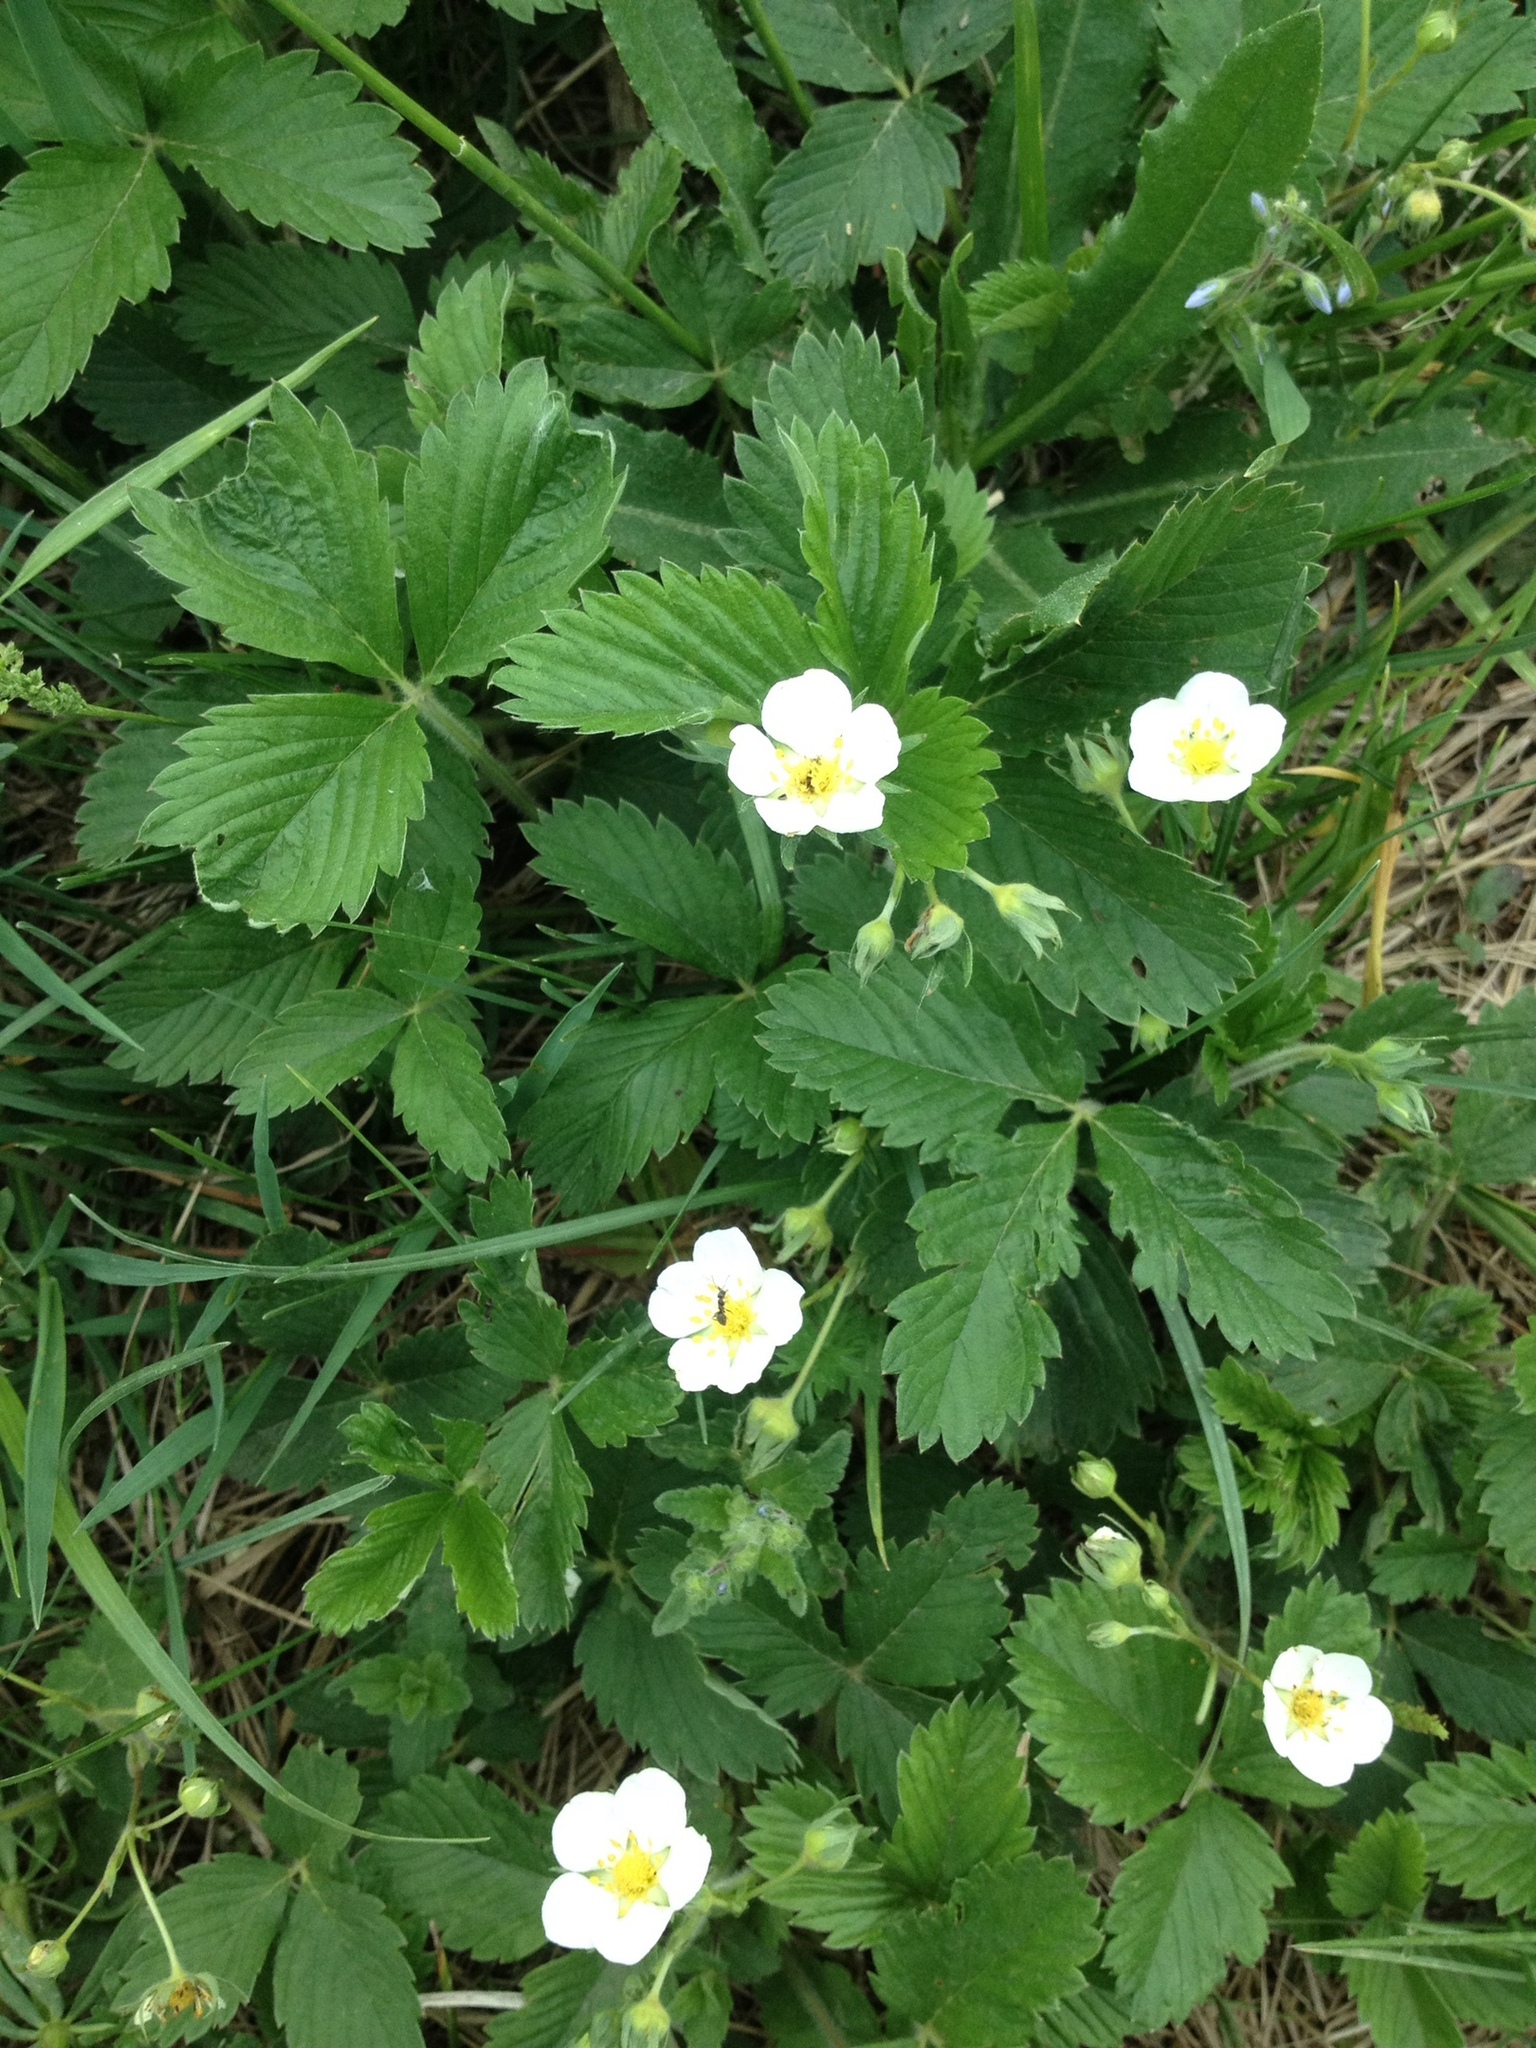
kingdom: Plantae
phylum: Tracheophyta
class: Magnoliopsida
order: Rosales
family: Rosaceae
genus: Fragaria
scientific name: Fragaria viridis
